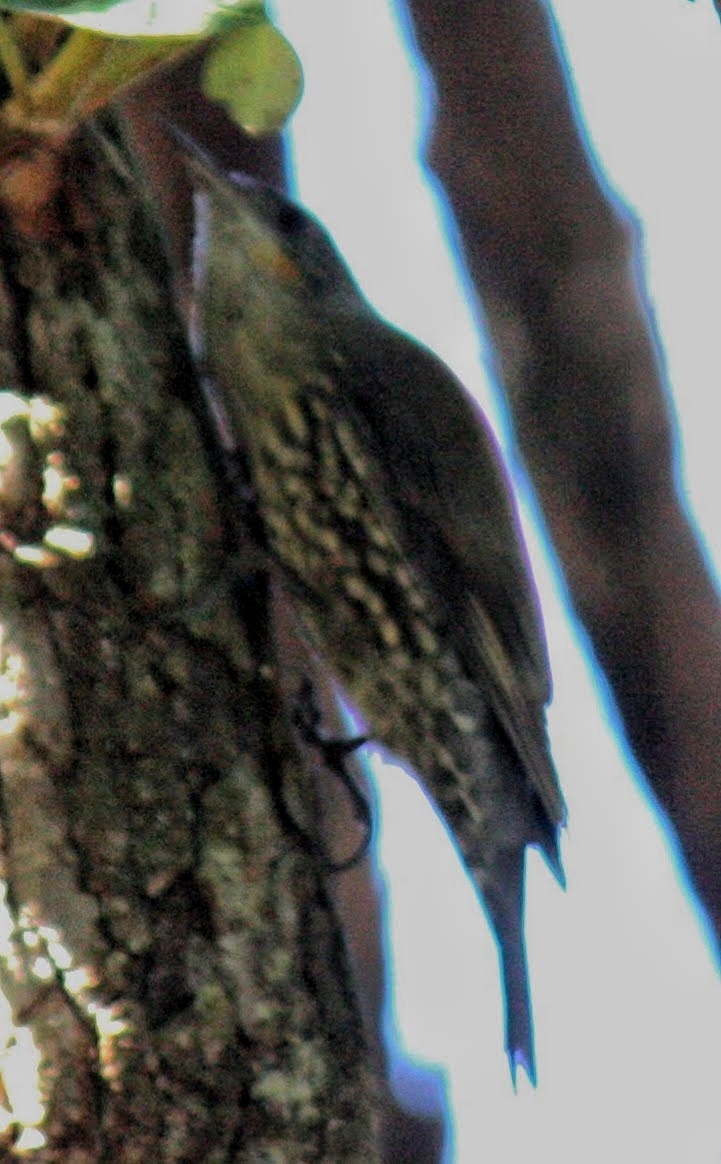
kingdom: Animalia
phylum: Chordata
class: Aves
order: Passeriformes
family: Climacteridae
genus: Cormobates
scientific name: Cormobates leucophaea
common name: White-throated treecreeper
